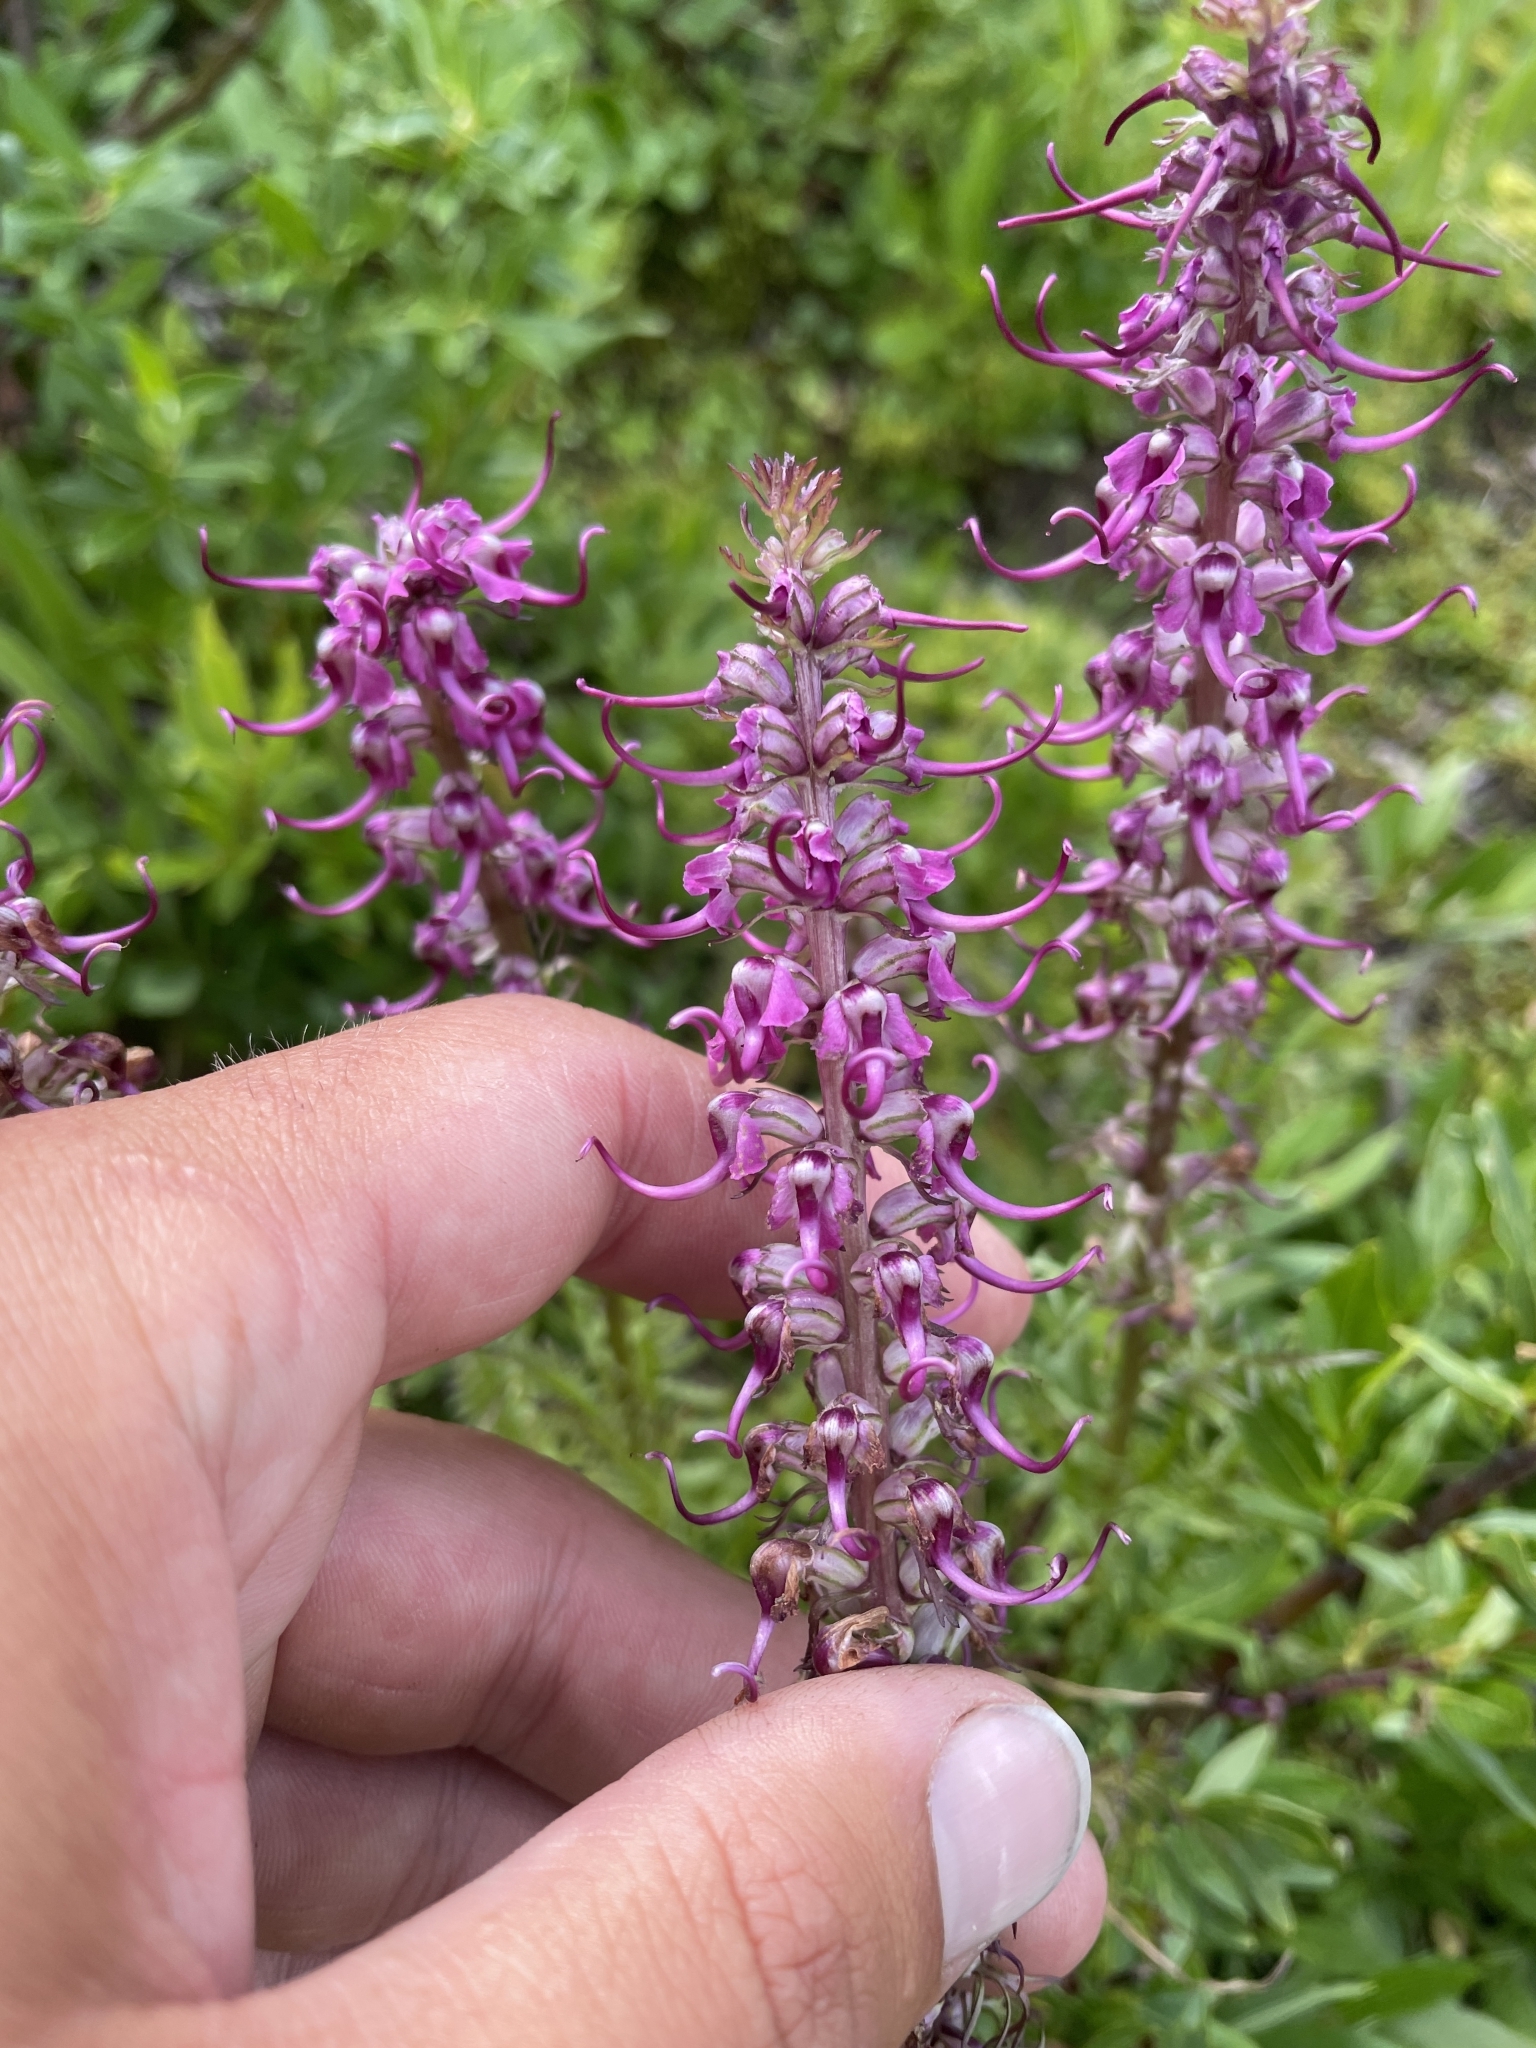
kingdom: Plantae
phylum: Tracheophyta
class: Magnoliopsida
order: Lamiales
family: Orobanchaceae
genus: Pedicularis
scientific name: Pedicularis groenlandica
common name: Elephant's-head
